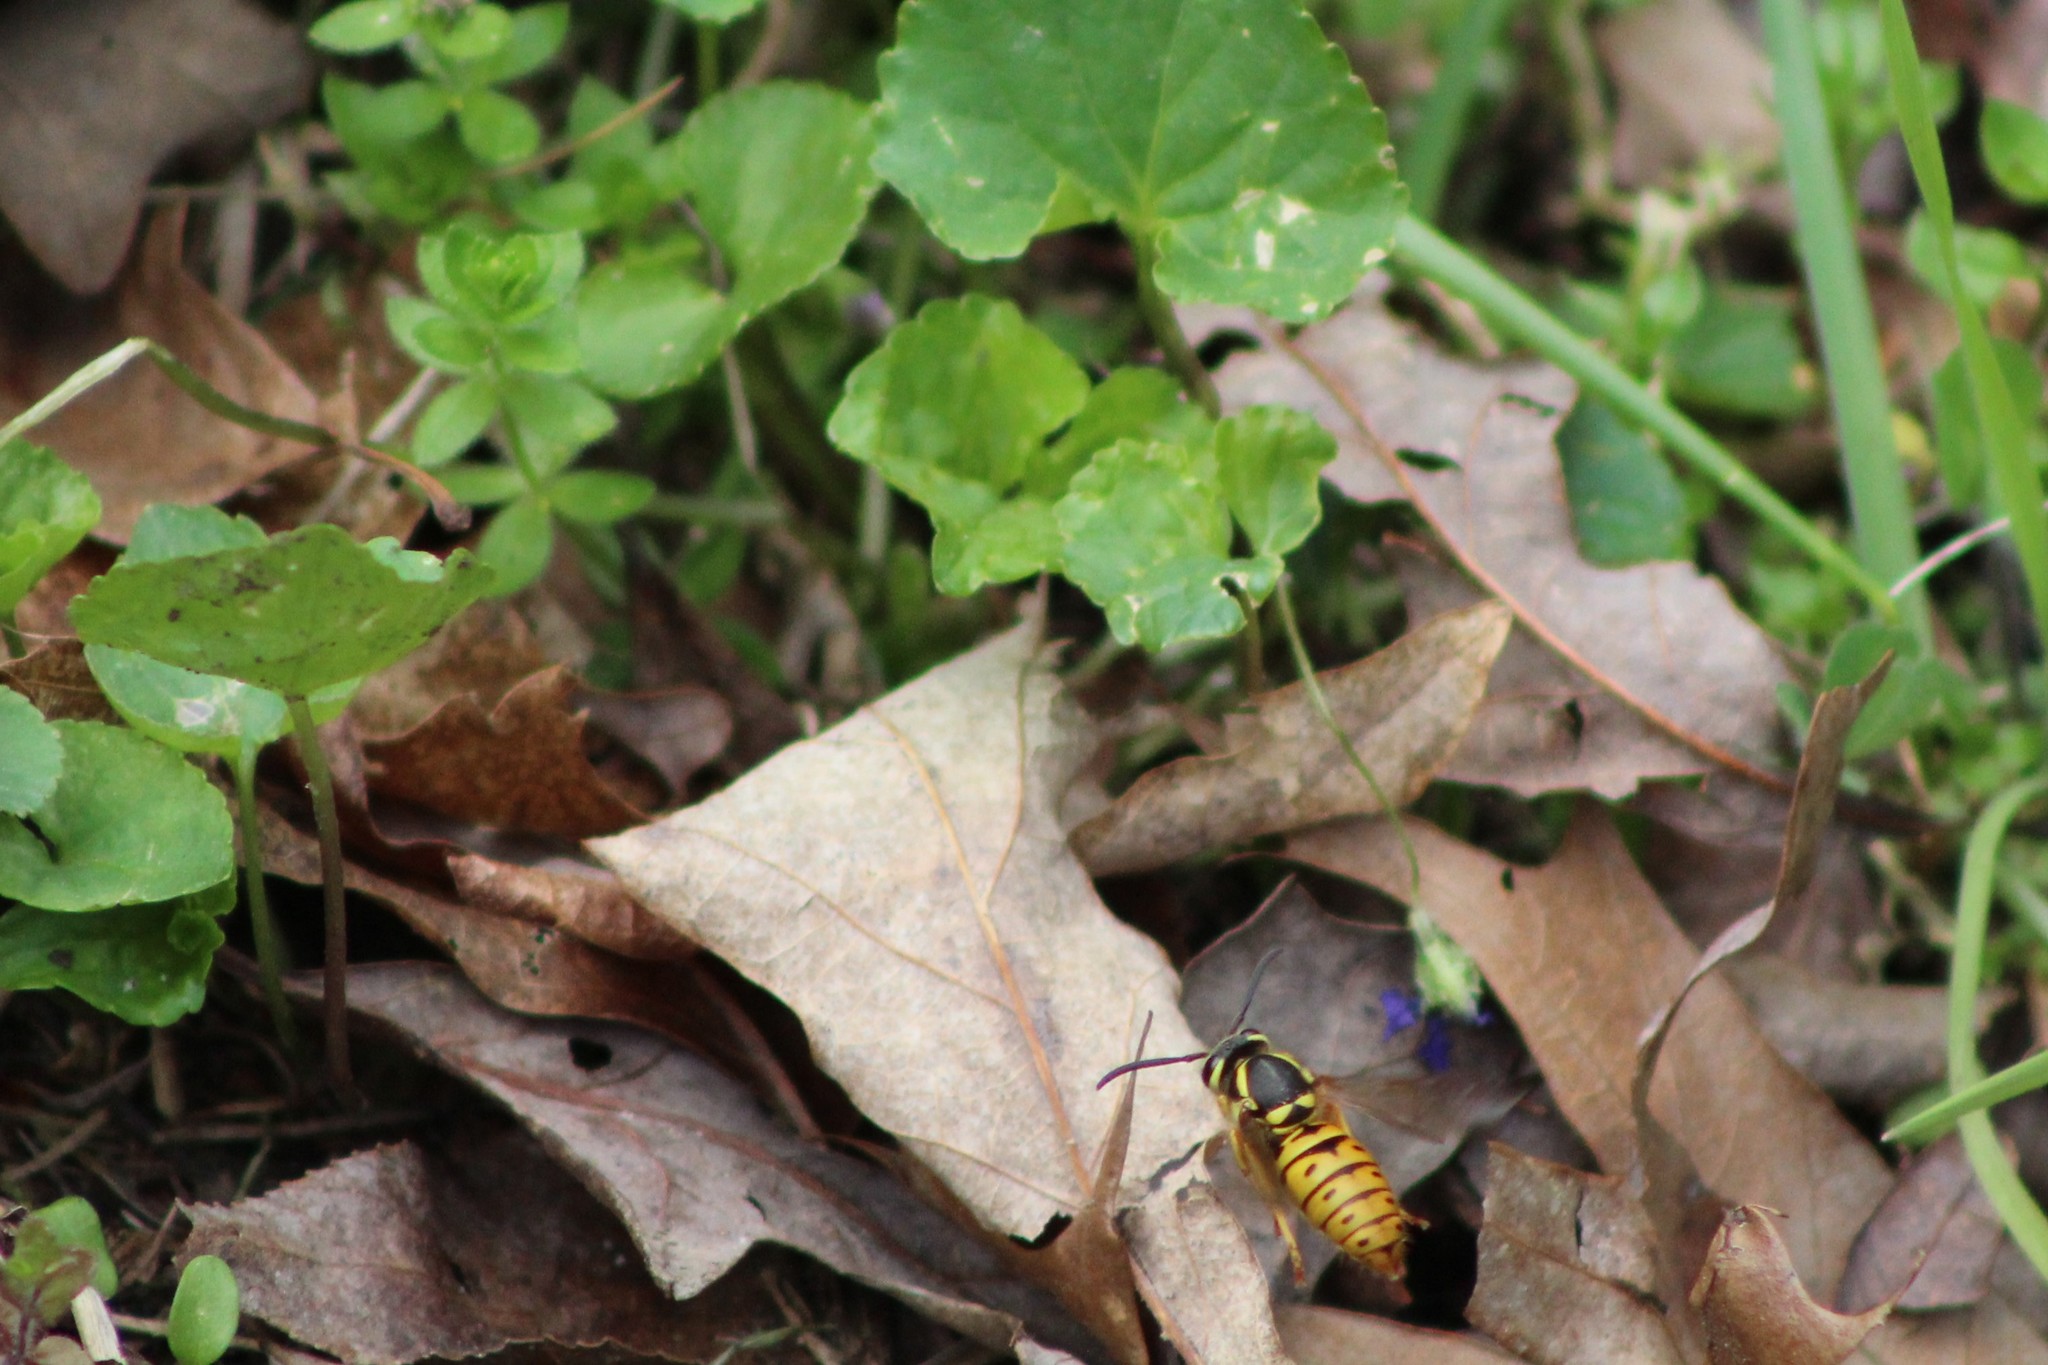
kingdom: Animalia
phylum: Arthropoda
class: Insecta
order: Hymenoptera
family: Vespidae
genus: Vespula
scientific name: Vespula maculifrons
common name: Eastern yellowjacket
